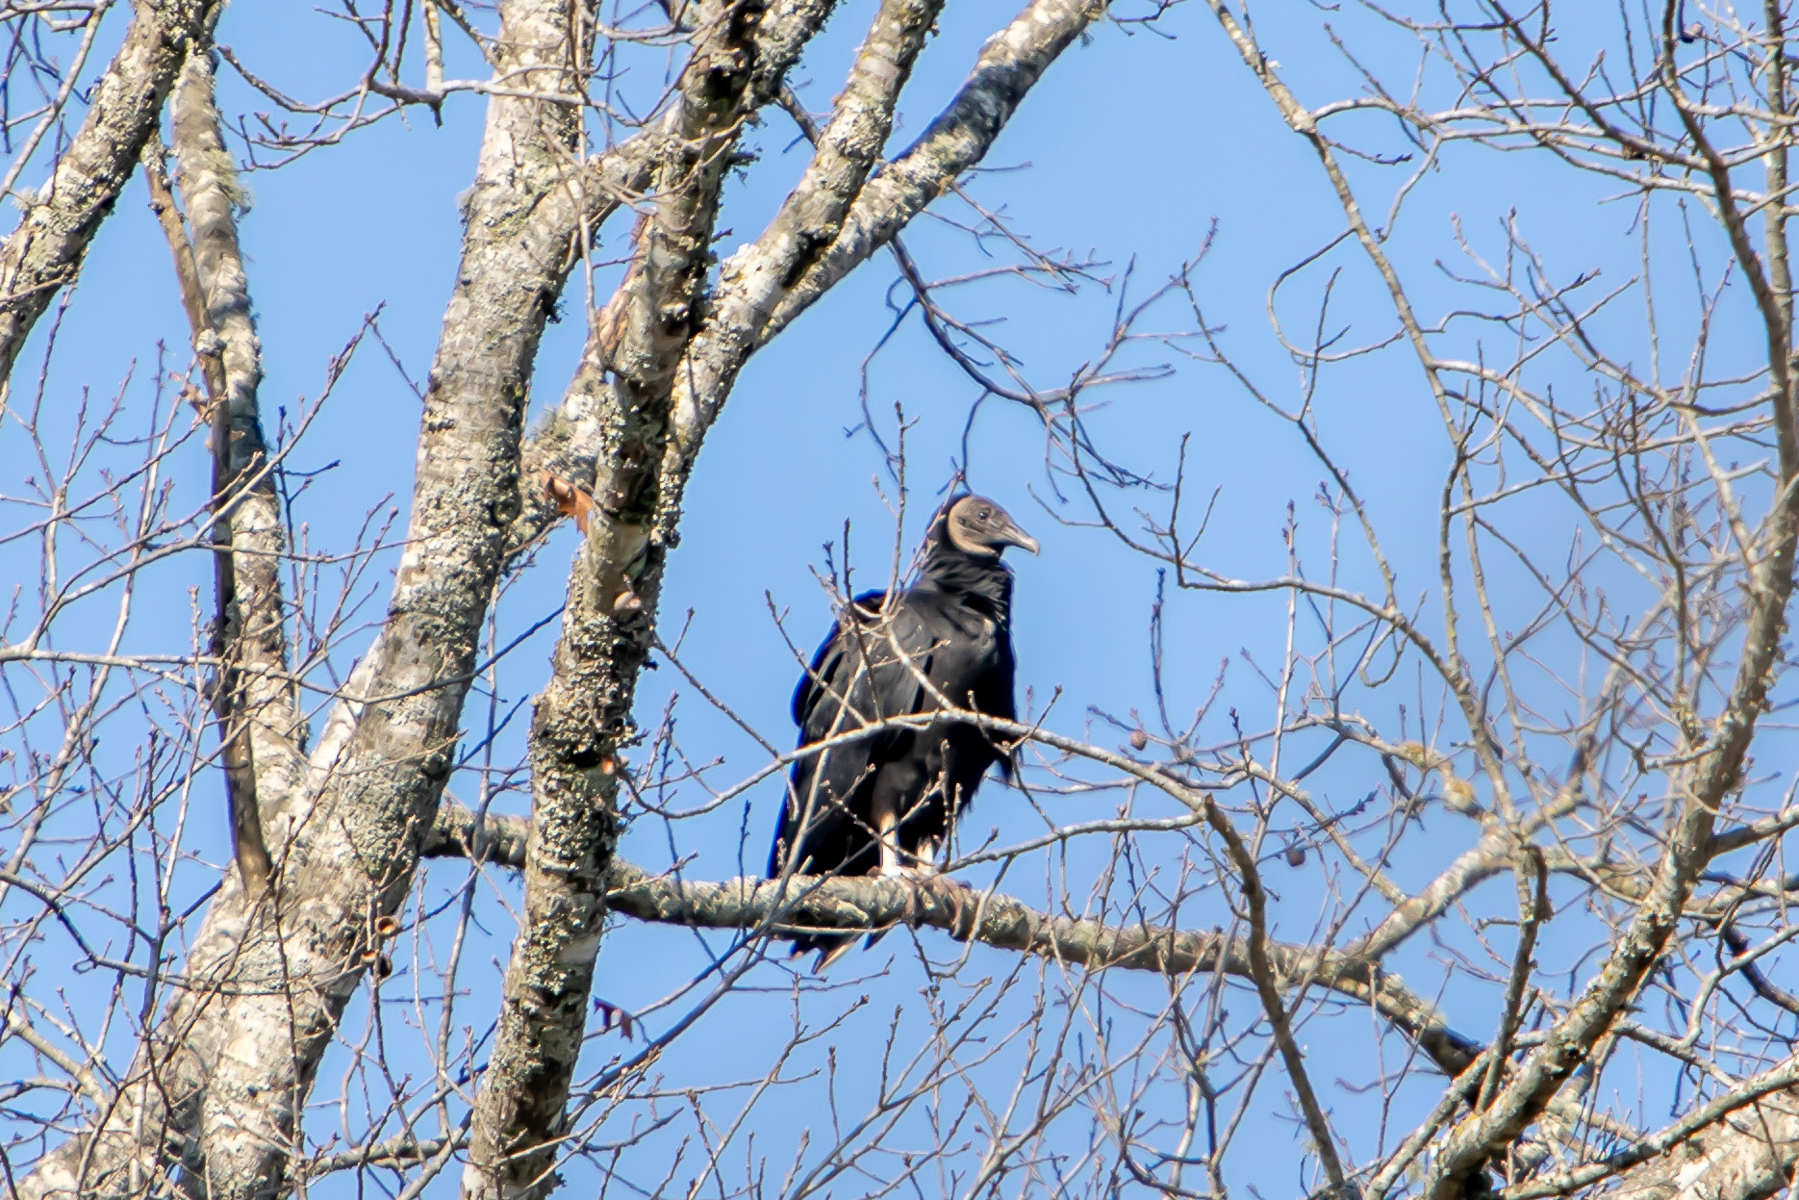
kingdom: Animalia
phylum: Chordata
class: Aves
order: Accipitriformes
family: Cathartidae
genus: Coragyps
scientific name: Coragyps atratus
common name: Black vulture
